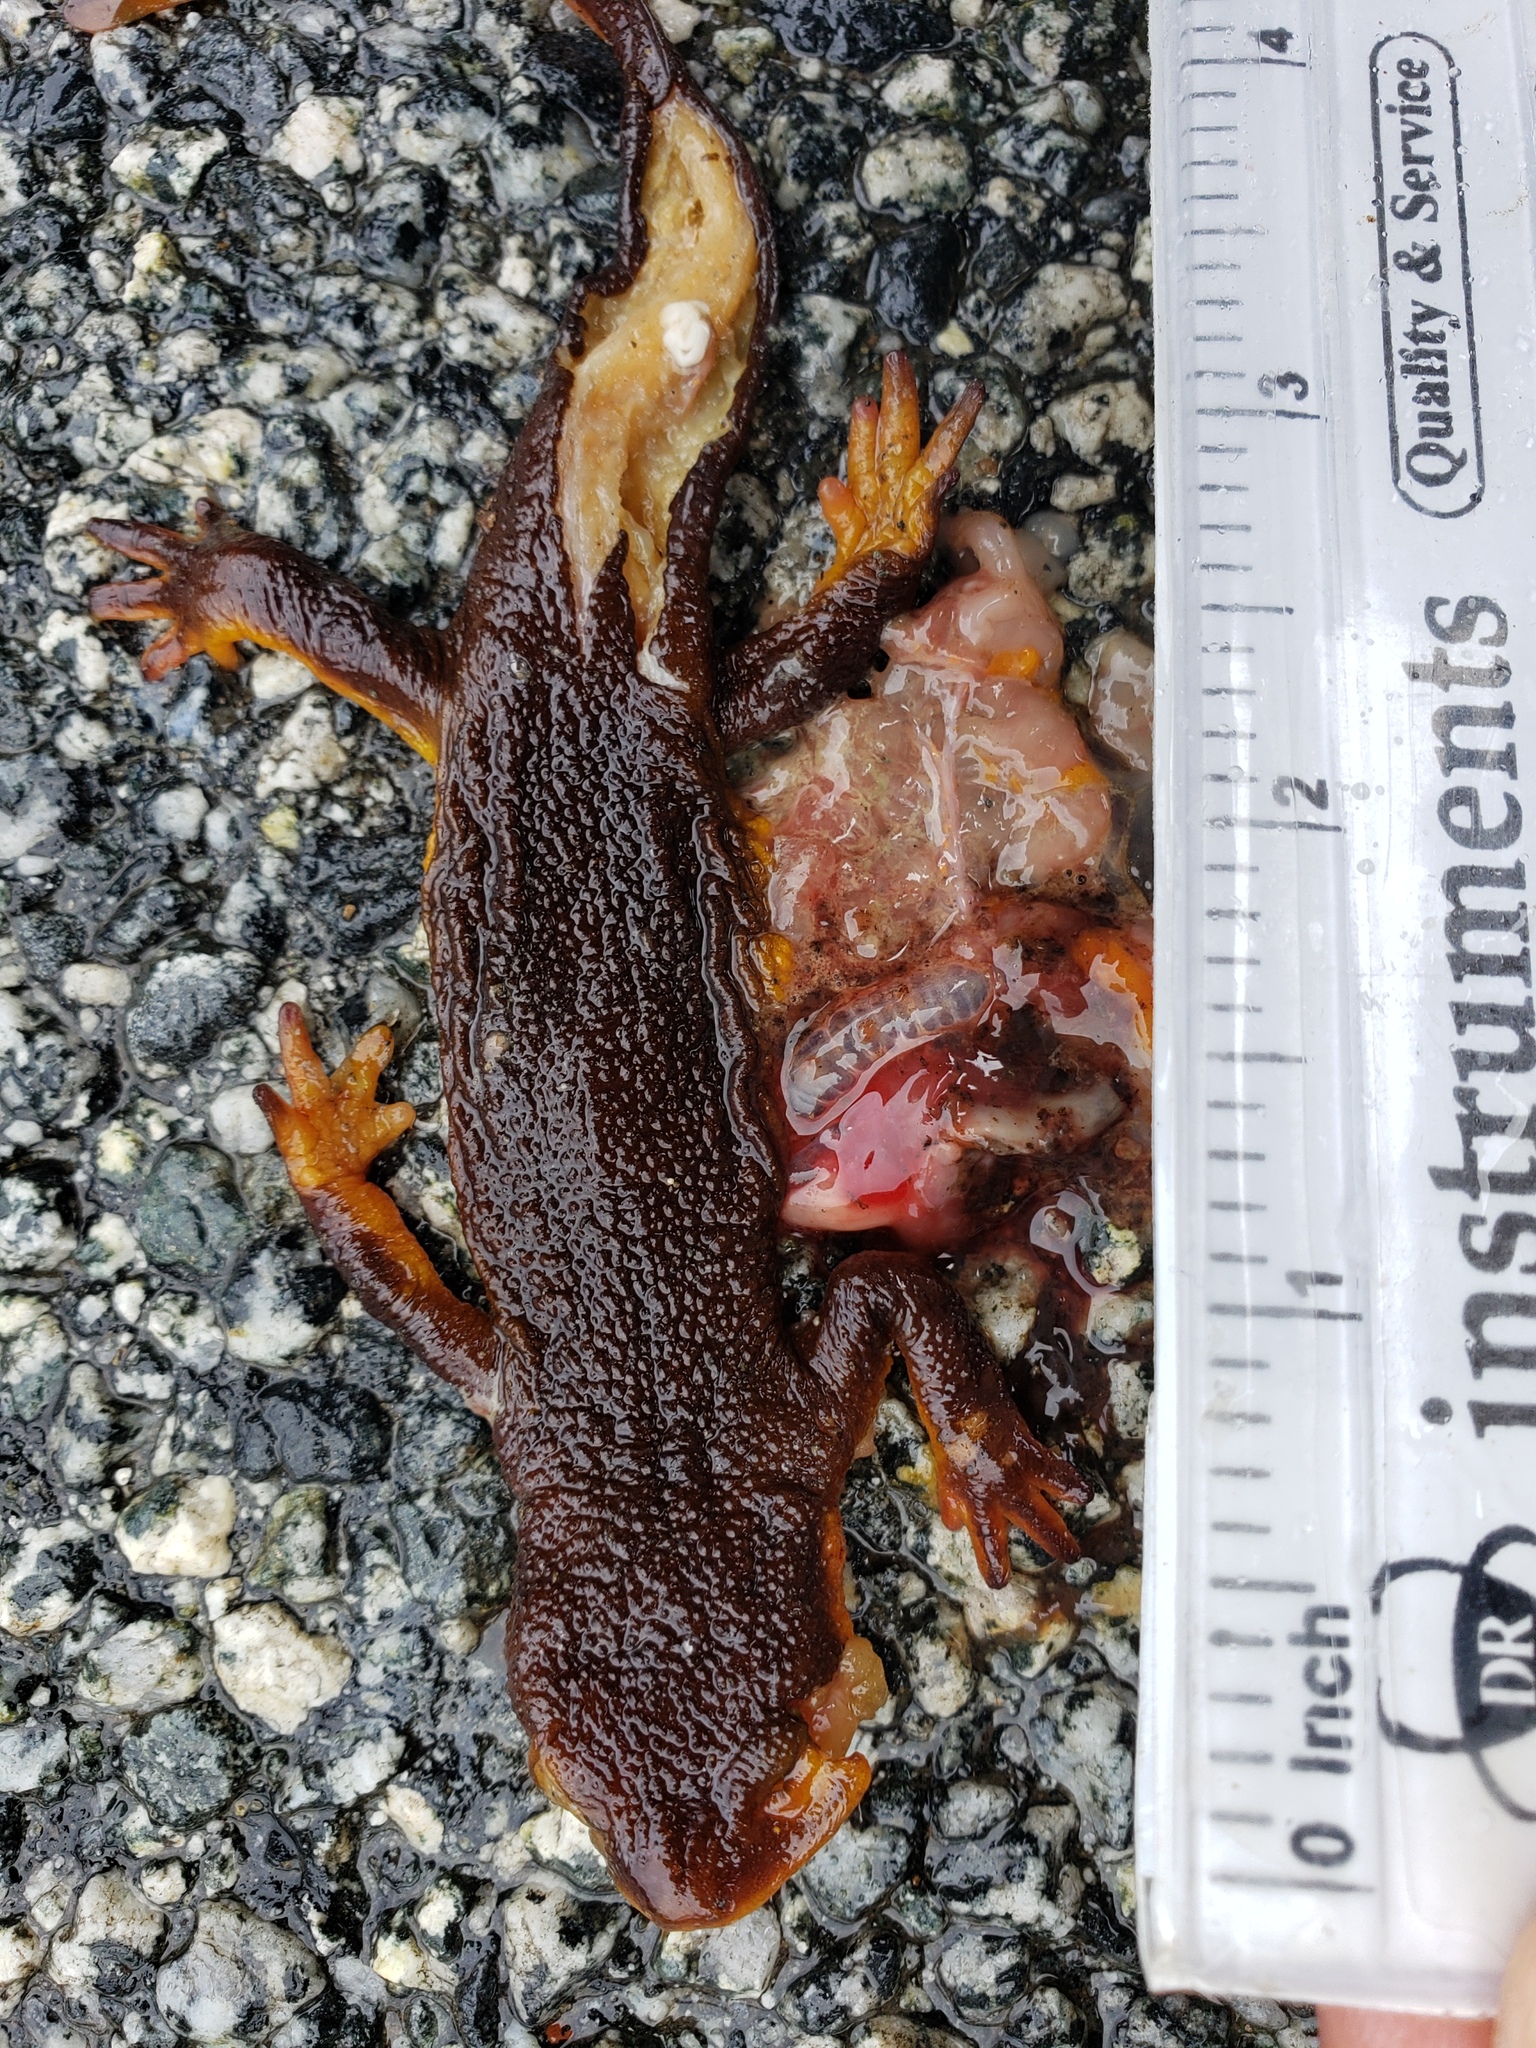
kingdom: Animalia
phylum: Chordata
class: Amphibia
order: Caudata
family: Salamandridae
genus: Taricha
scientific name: Taricha
